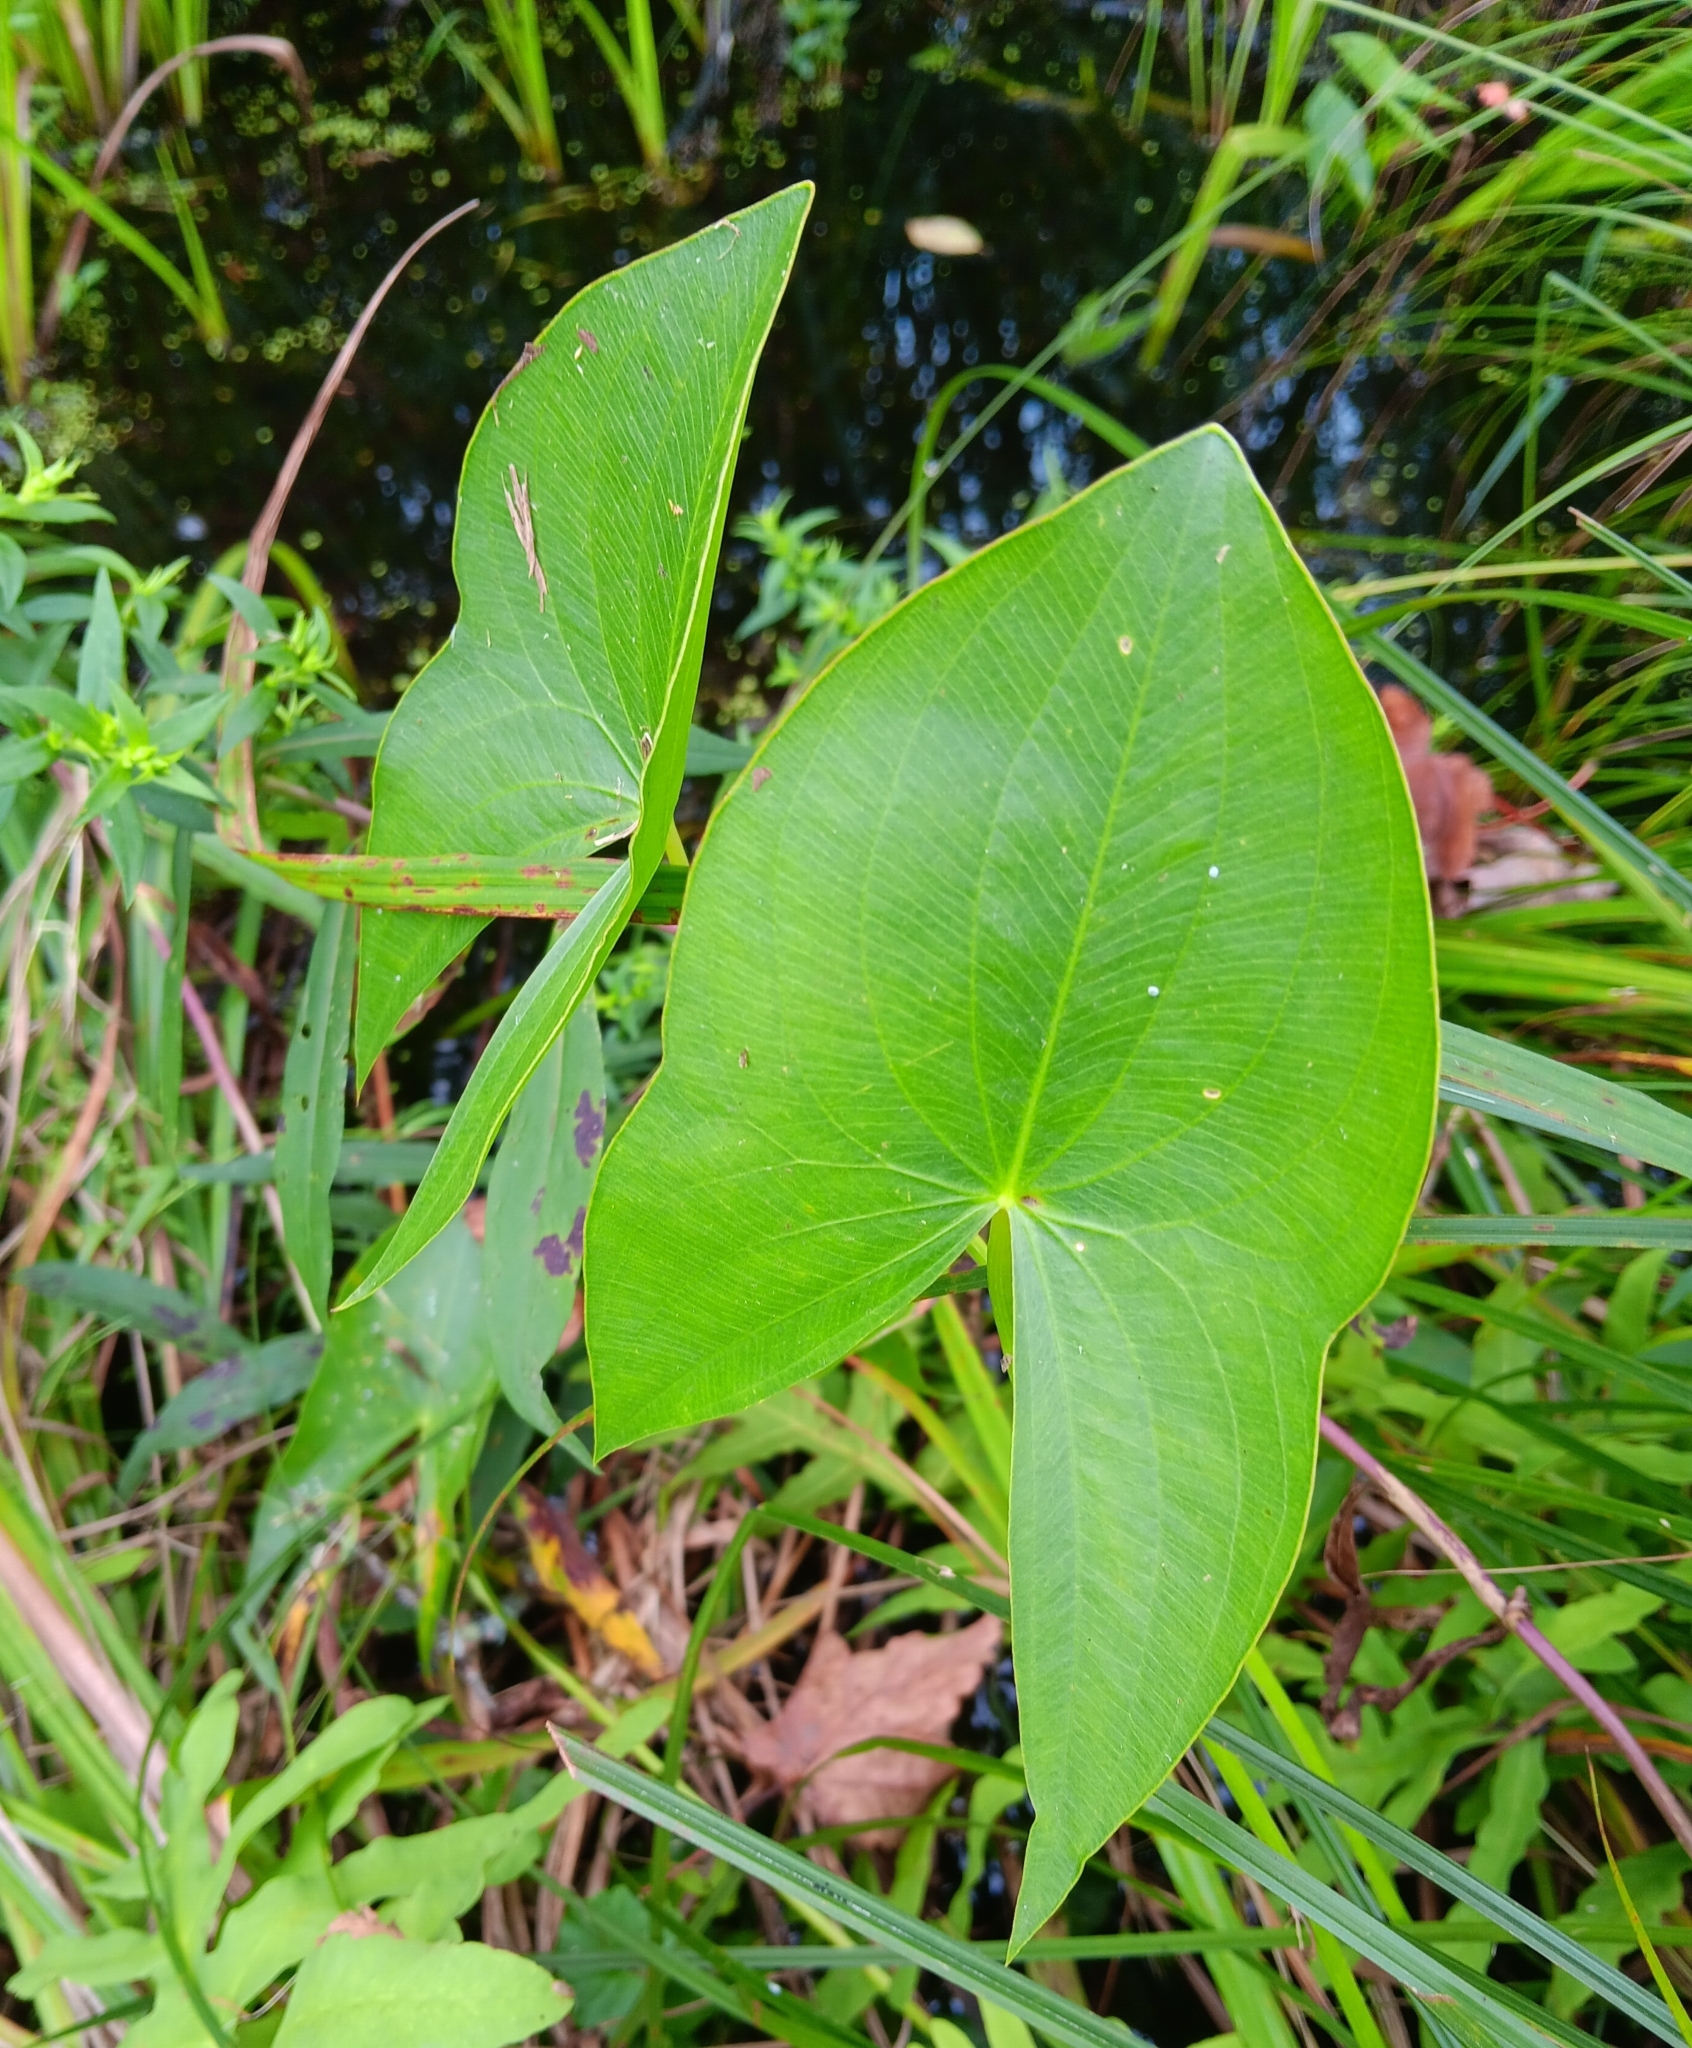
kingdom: Plantae
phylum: Tracheophyta
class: Liliopsida
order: Alismatales
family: Alismataceae
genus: Sagittaria
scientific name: Sagittaria latifolia
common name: Duck-potato
